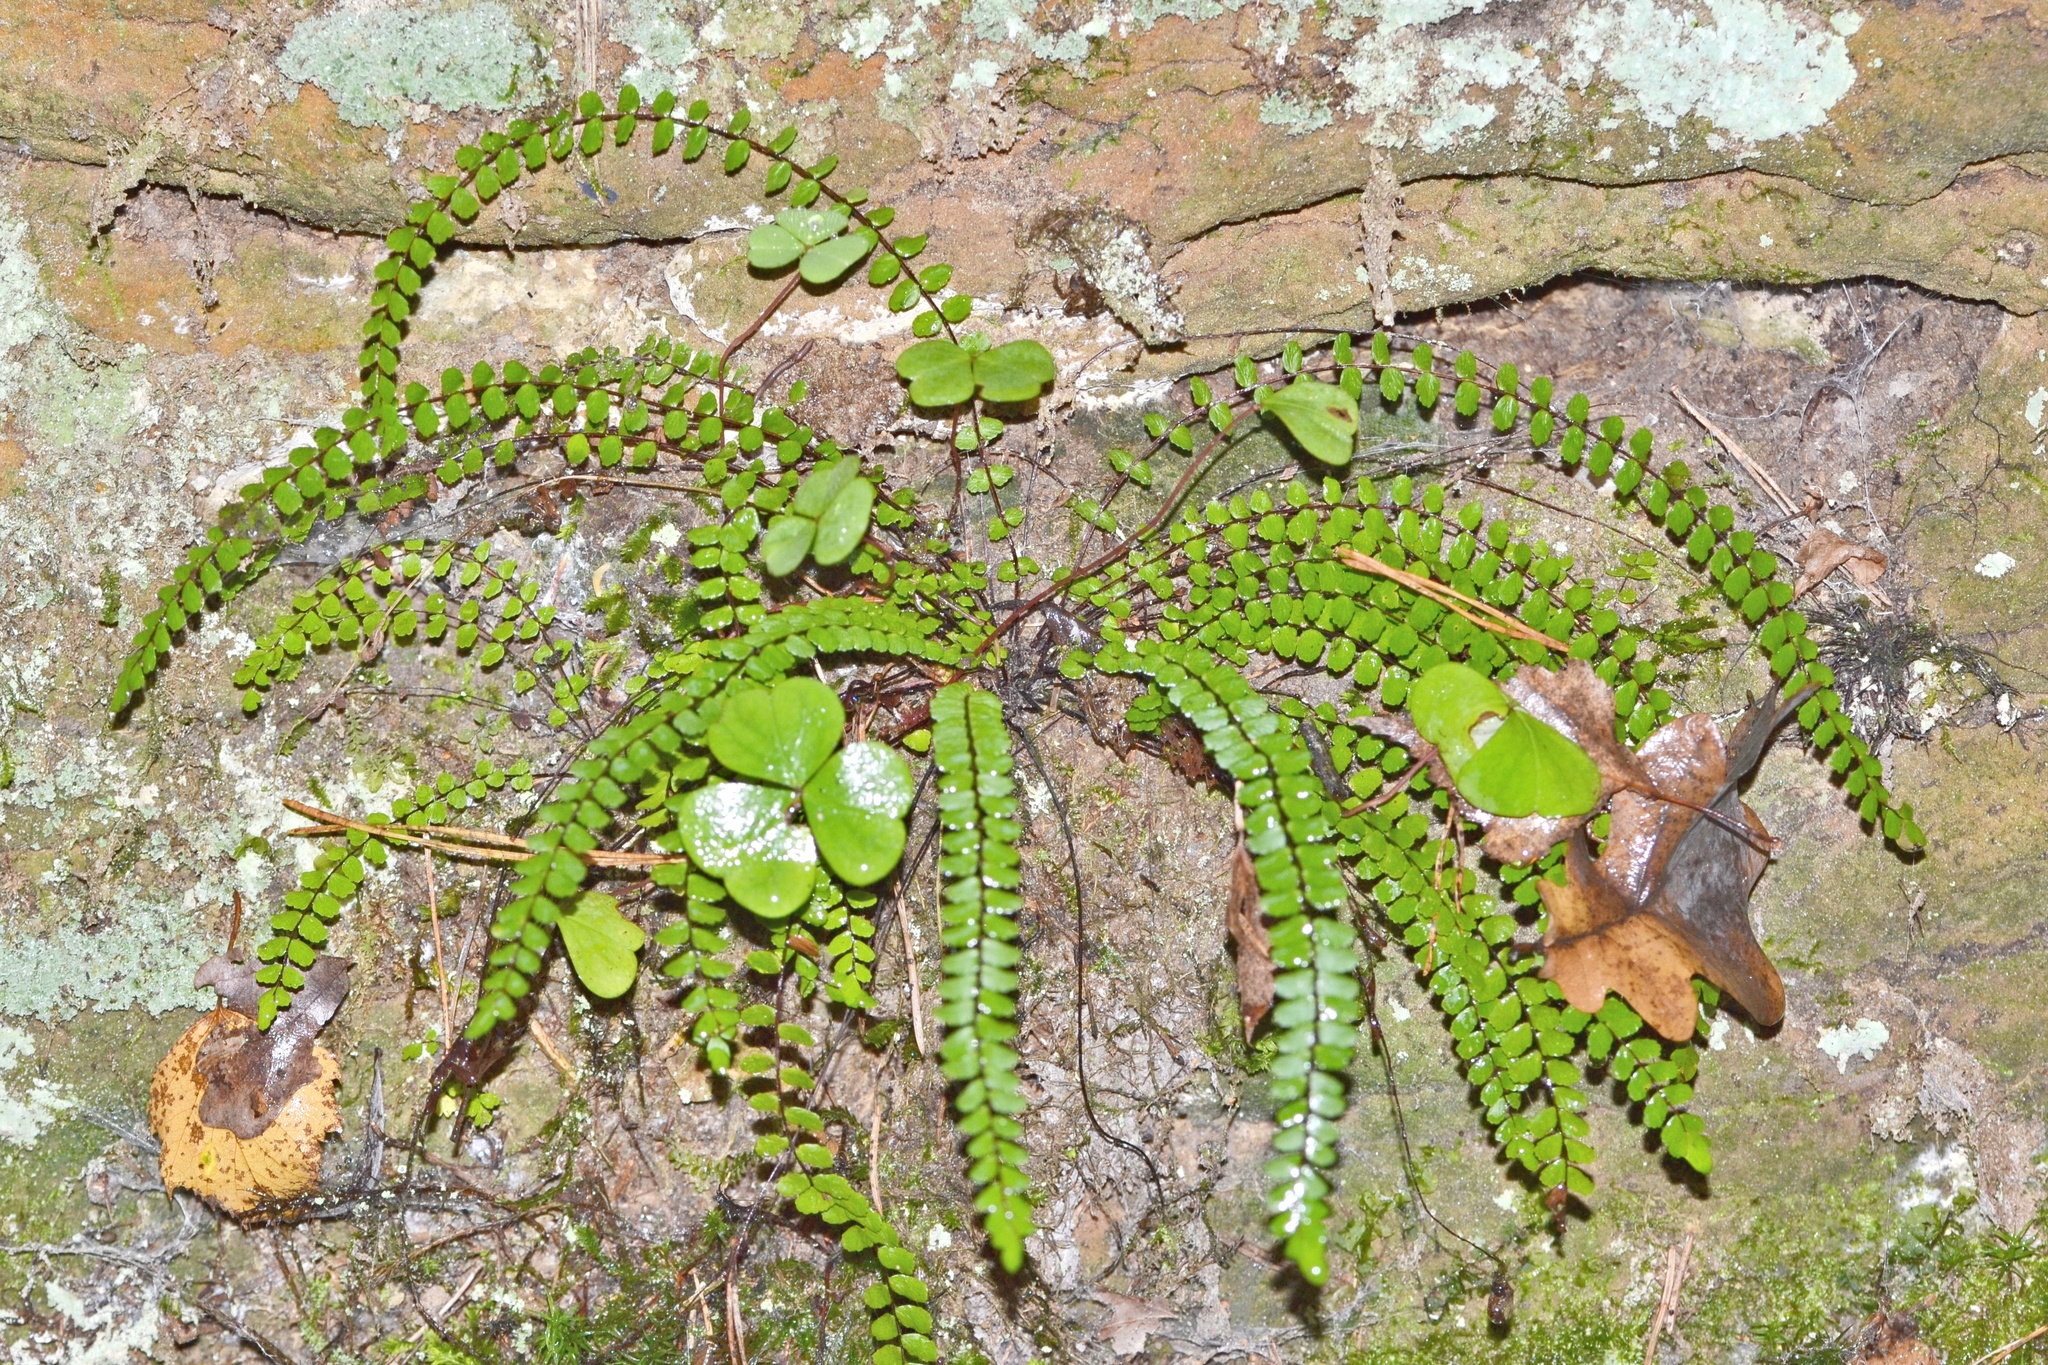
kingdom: Plantae
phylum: Tracheophyta
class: Polypodiopsida
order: Polypodiales
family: Aspleniaceae
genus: Asplenium
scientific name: Asplenium trichomanes
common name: Maidenhair spleenwort
